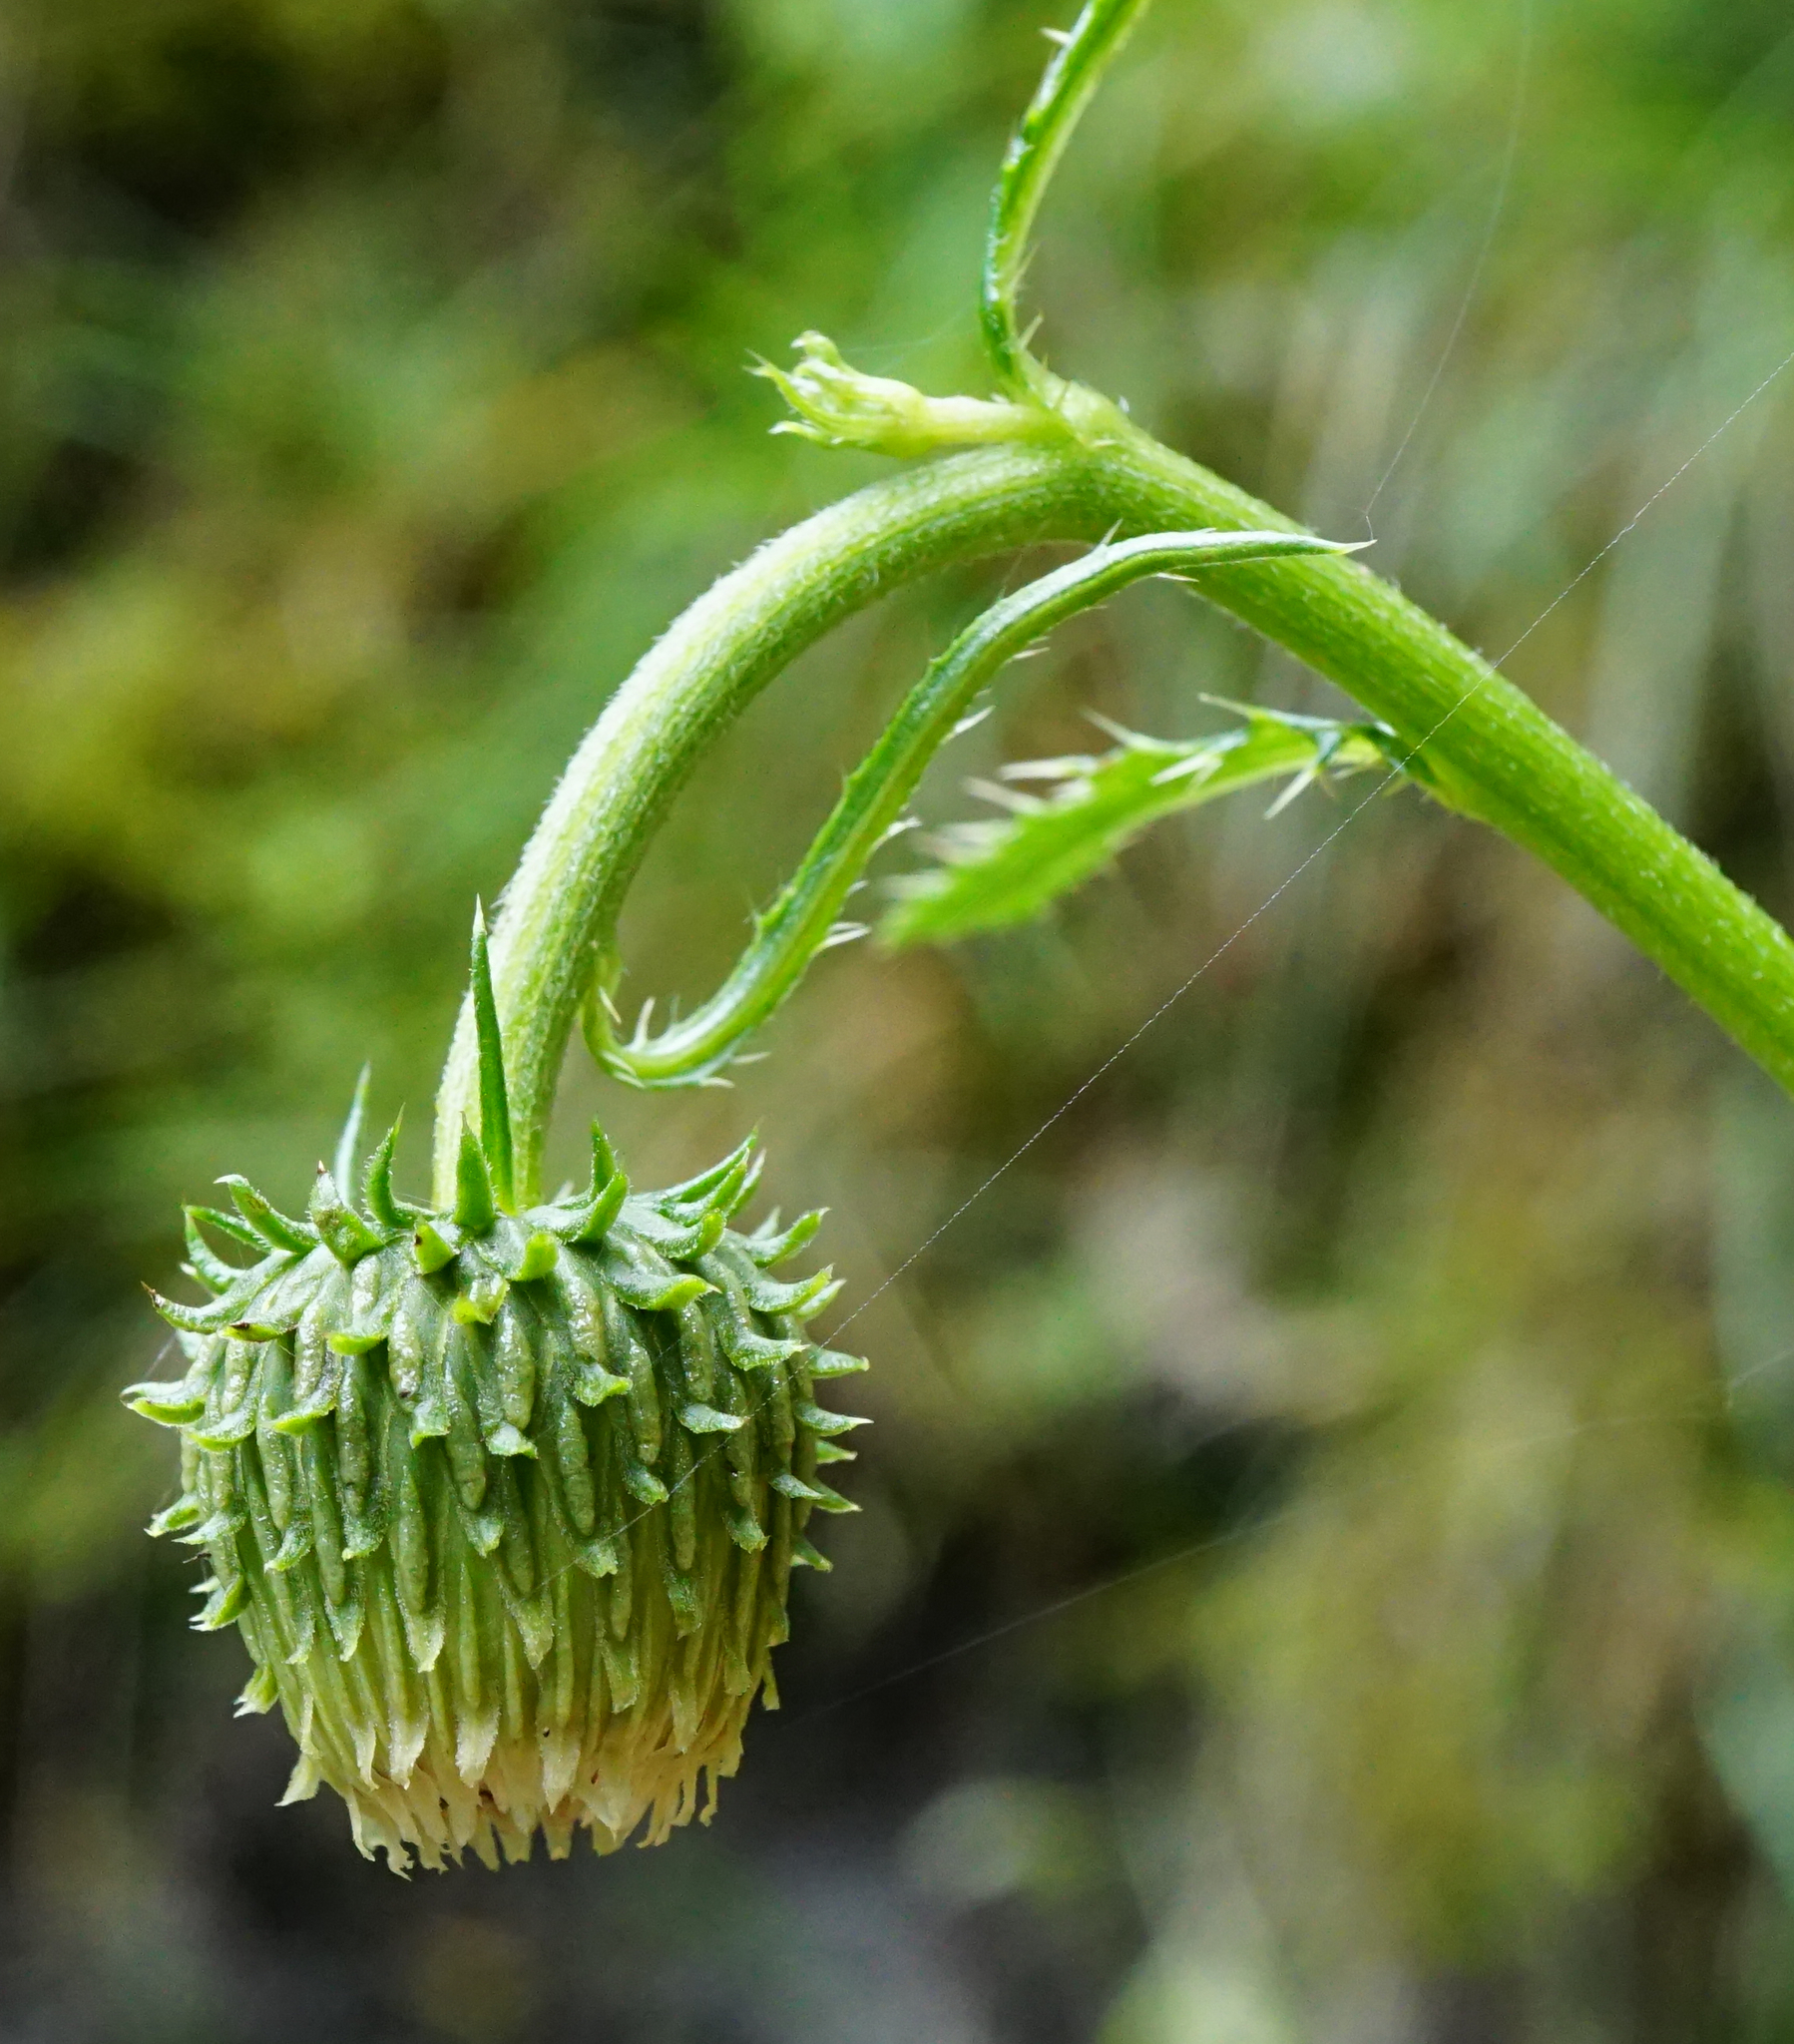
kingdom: Plantae
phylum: Tracheophyta
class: Magnoliopsida
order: Asterales
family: Asteraceae
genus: Cirsium
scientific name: Cirsium erisithales
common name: Yellow thistle
